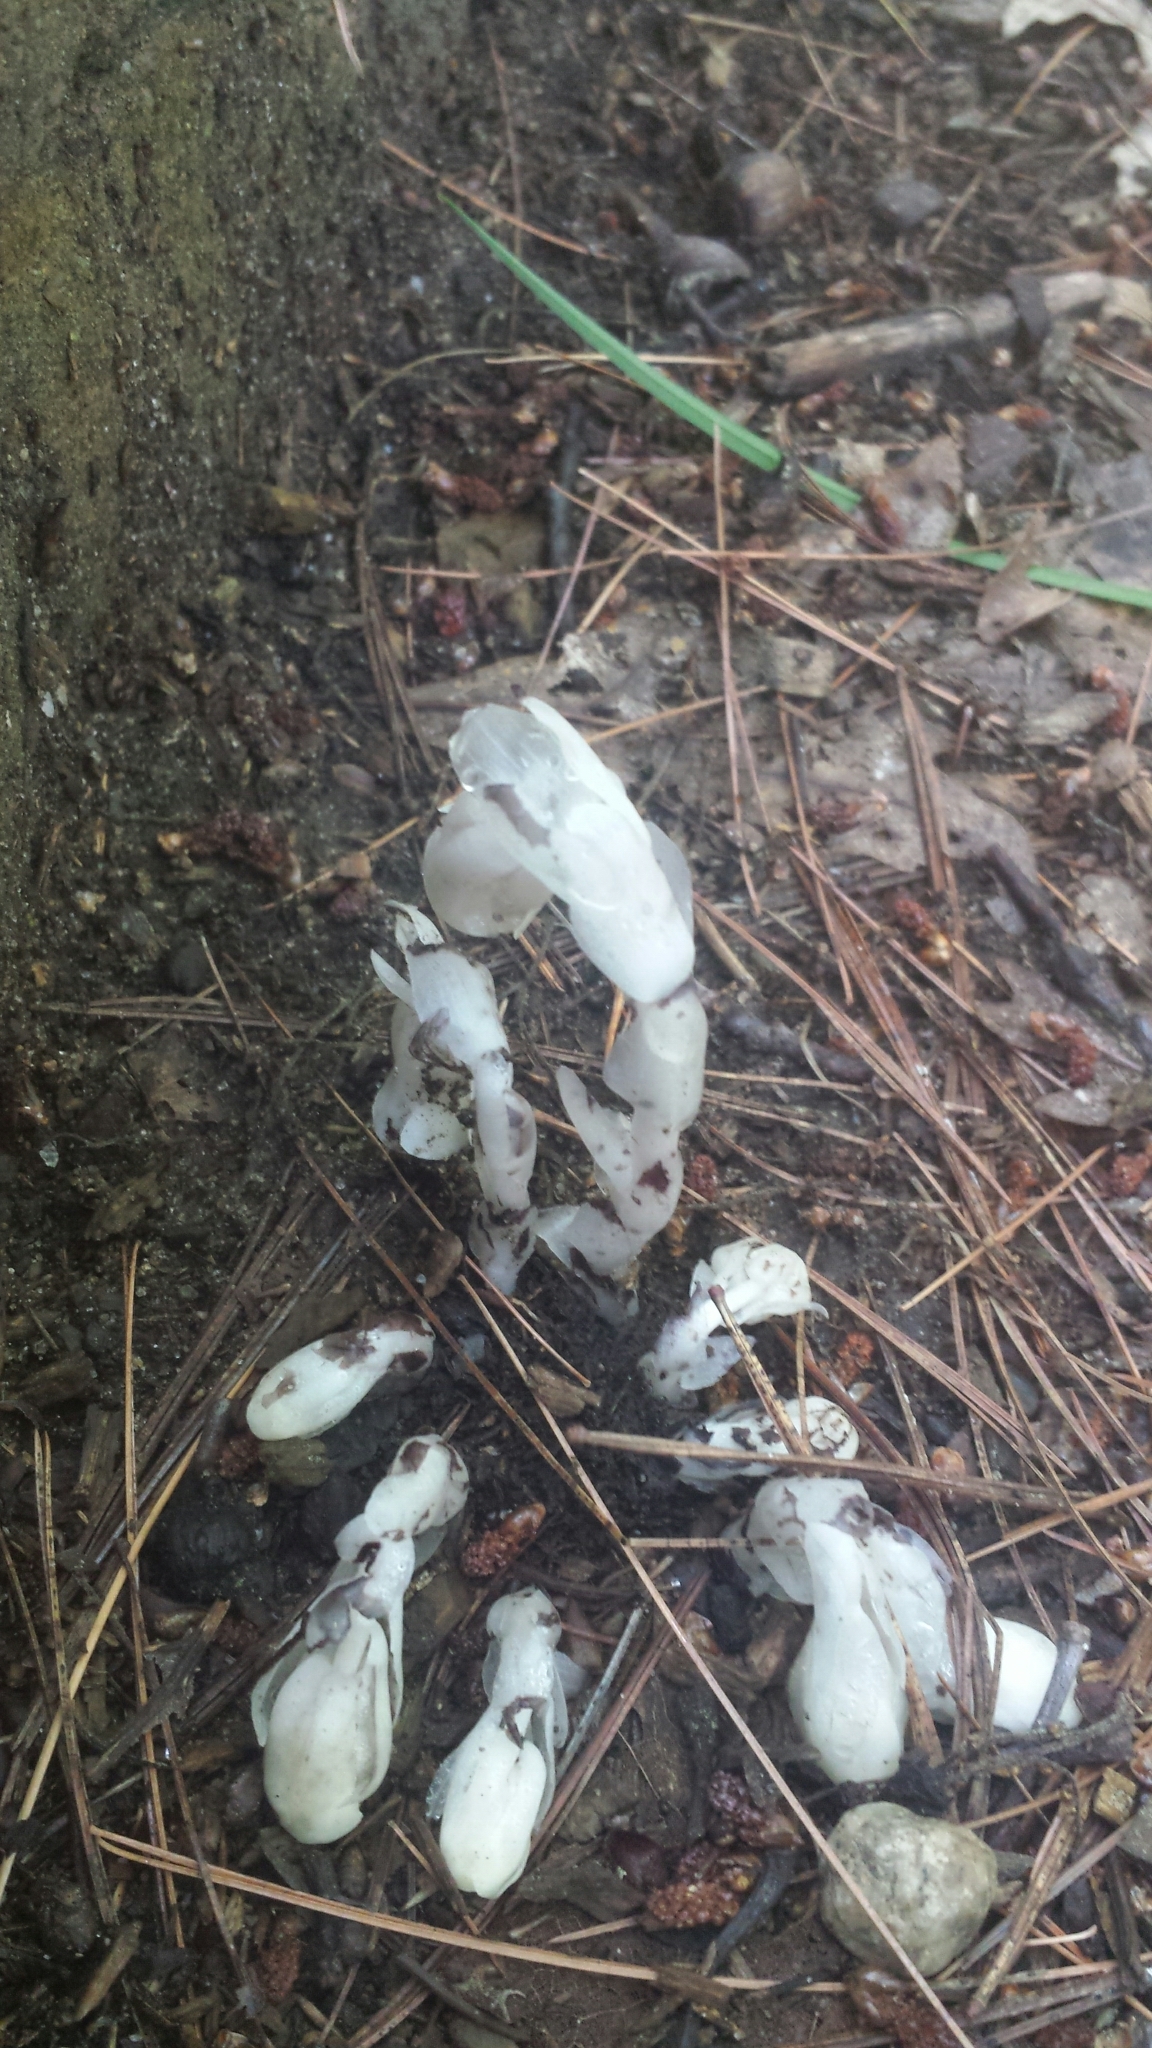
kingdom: Plantae
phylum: Tracheophyta
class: Magnoliopsida
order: Ericales
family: Ericaceae
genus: Monotropa
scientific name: Monotropa uniflora
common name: Convulsion root
